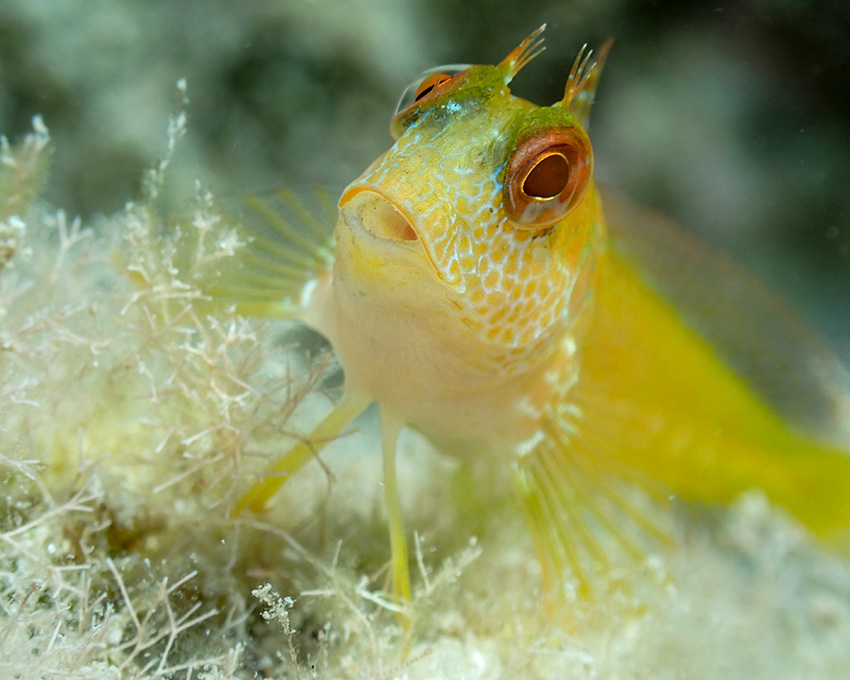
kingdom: Animalia
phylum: Chordata
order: Perciformes
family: Blenniidae
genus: Parablennius
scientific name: Parablennius pilicornis
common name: Ringneck blenny
